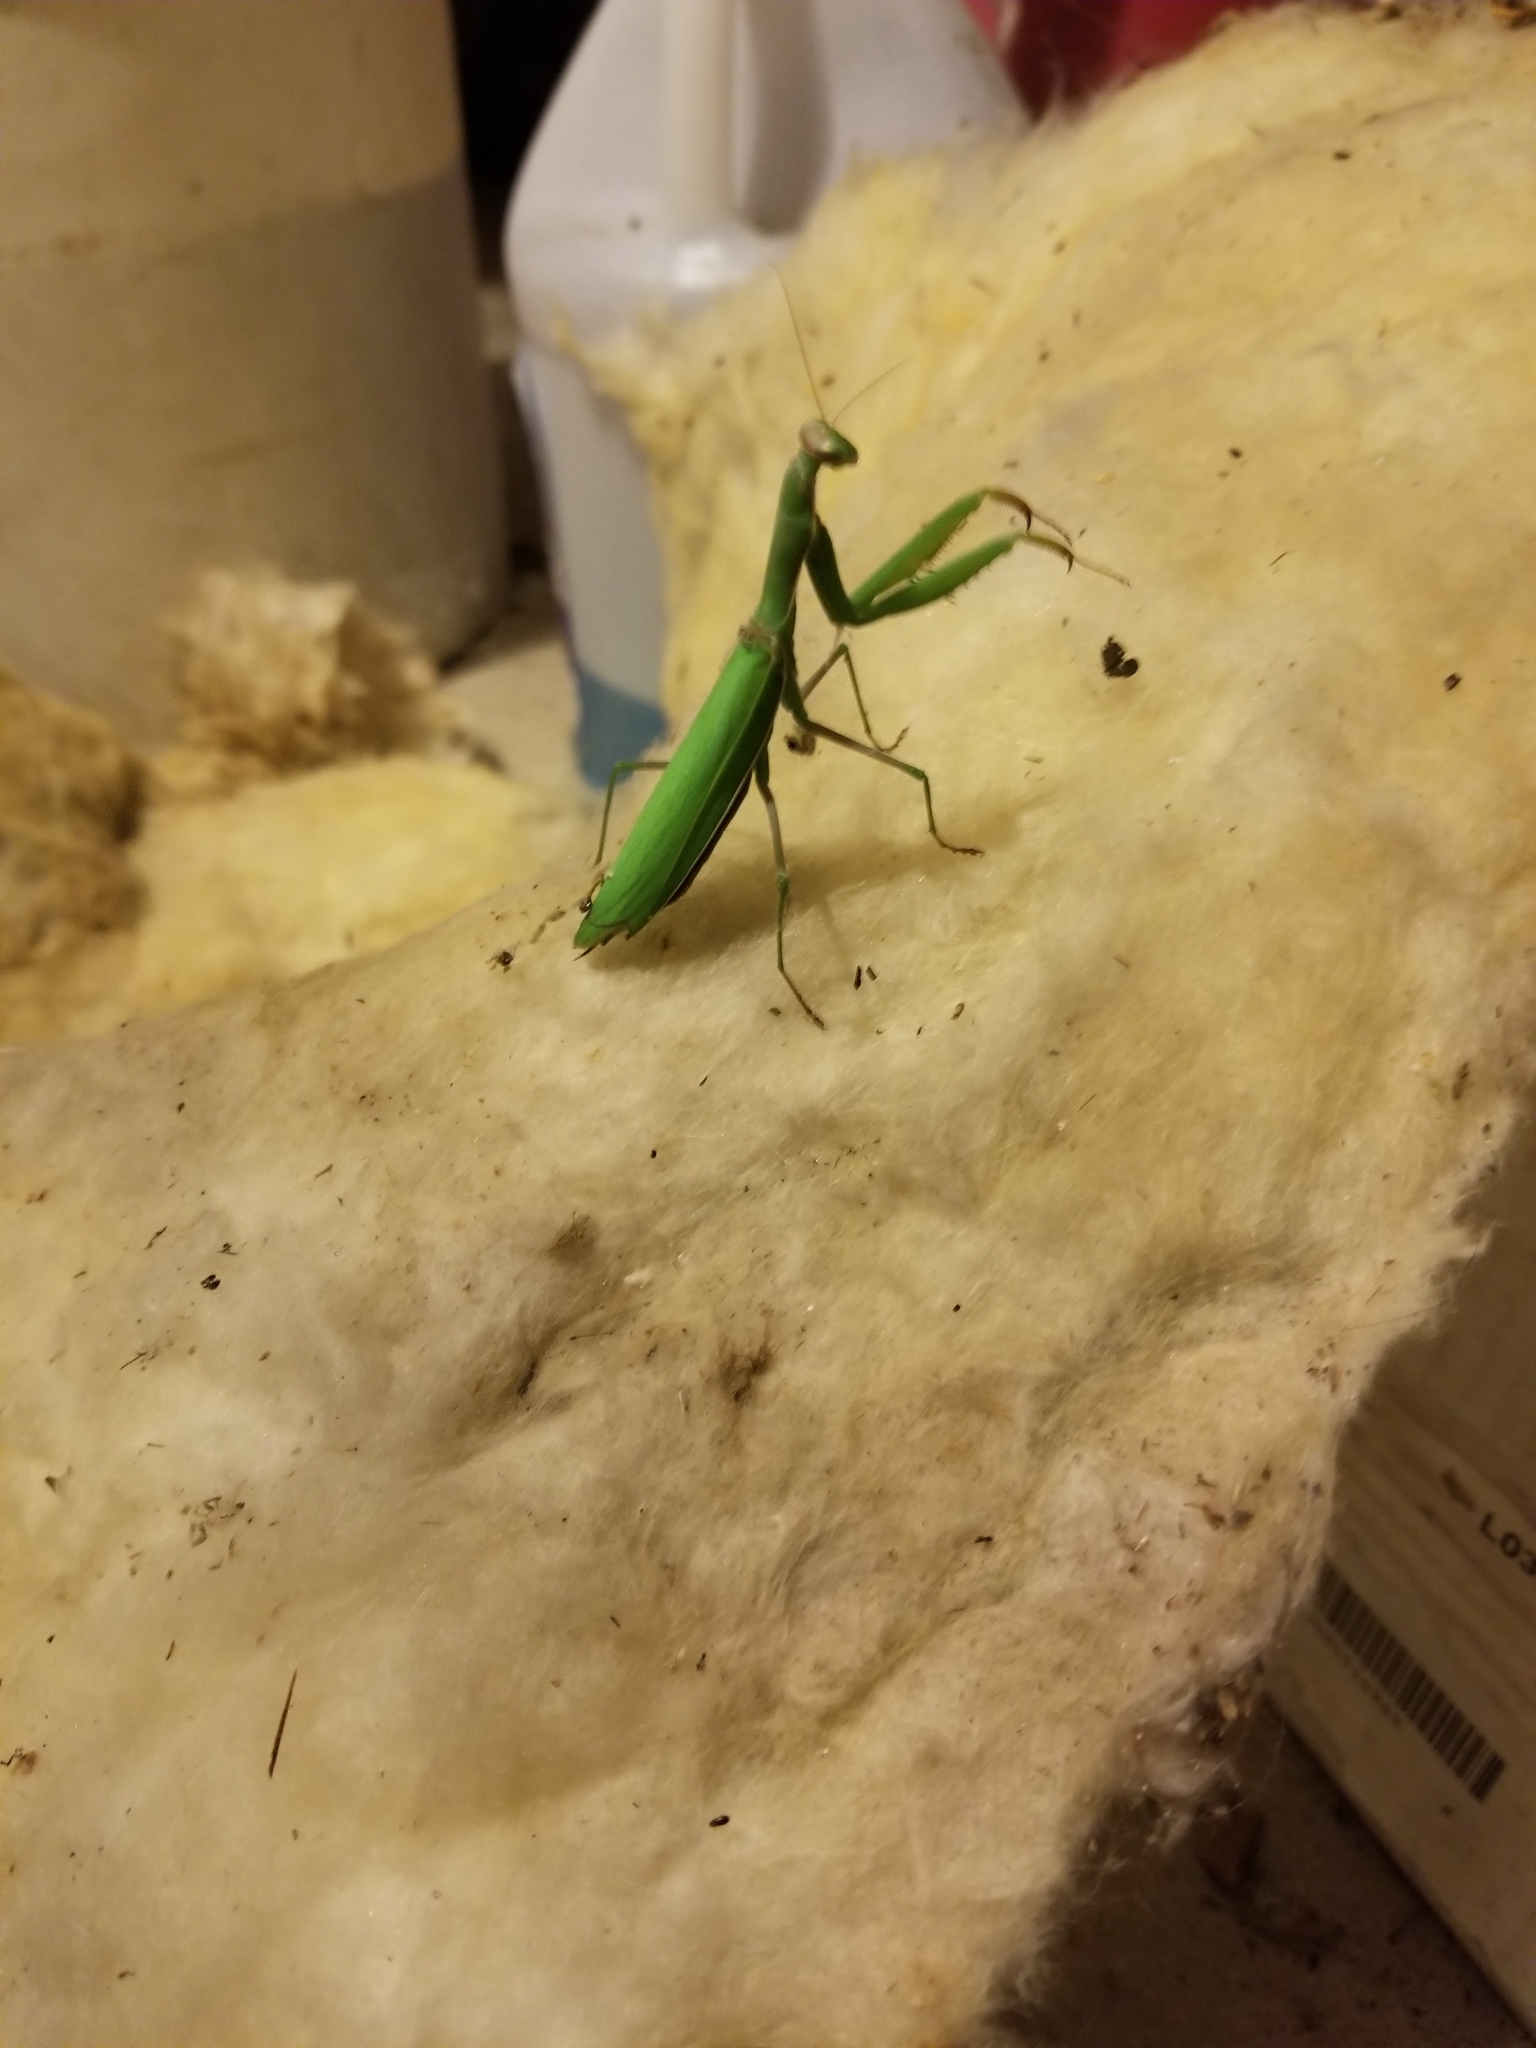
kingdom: Animalia
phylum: Arthropoda
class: Insecta
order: Mantodea
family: Mantidae
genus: Mantis
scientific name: Mantis religiosa
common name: Praying mantis
